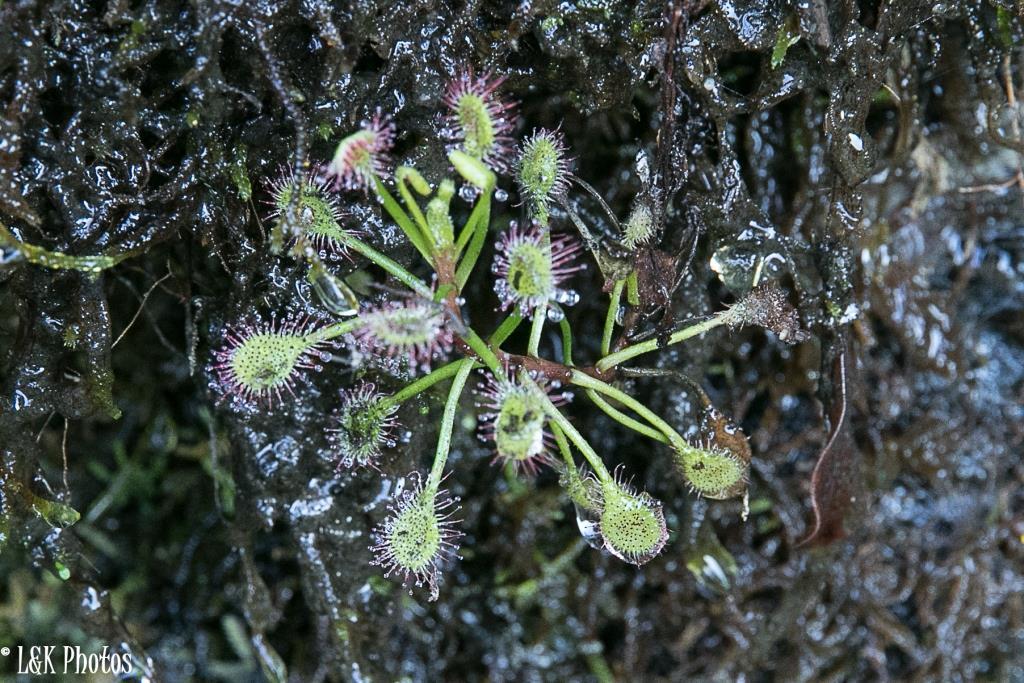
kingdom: Plantae
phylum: Tracheophyta
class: Magnoliopsida
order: Caryophyllales
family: Droseraceae
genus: Drosera
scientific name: Drosera madagascariensis
